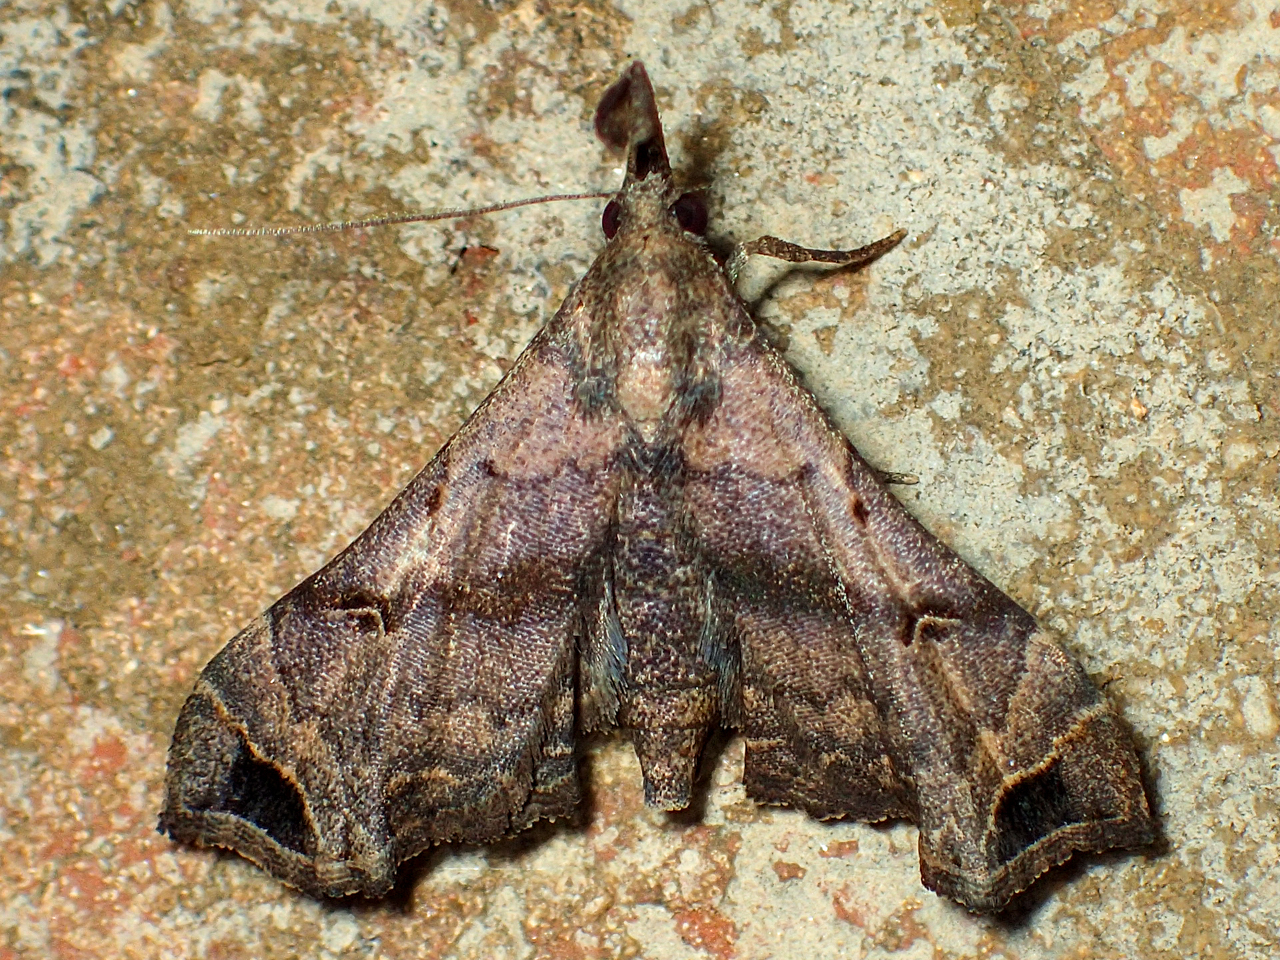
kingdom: Animalia
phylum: Arthropoda
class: Insecta
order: Lepidoptera
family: Erebidae
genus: Palthis
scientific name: Palthis asopialis
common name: Faint-spotted palthis moth
